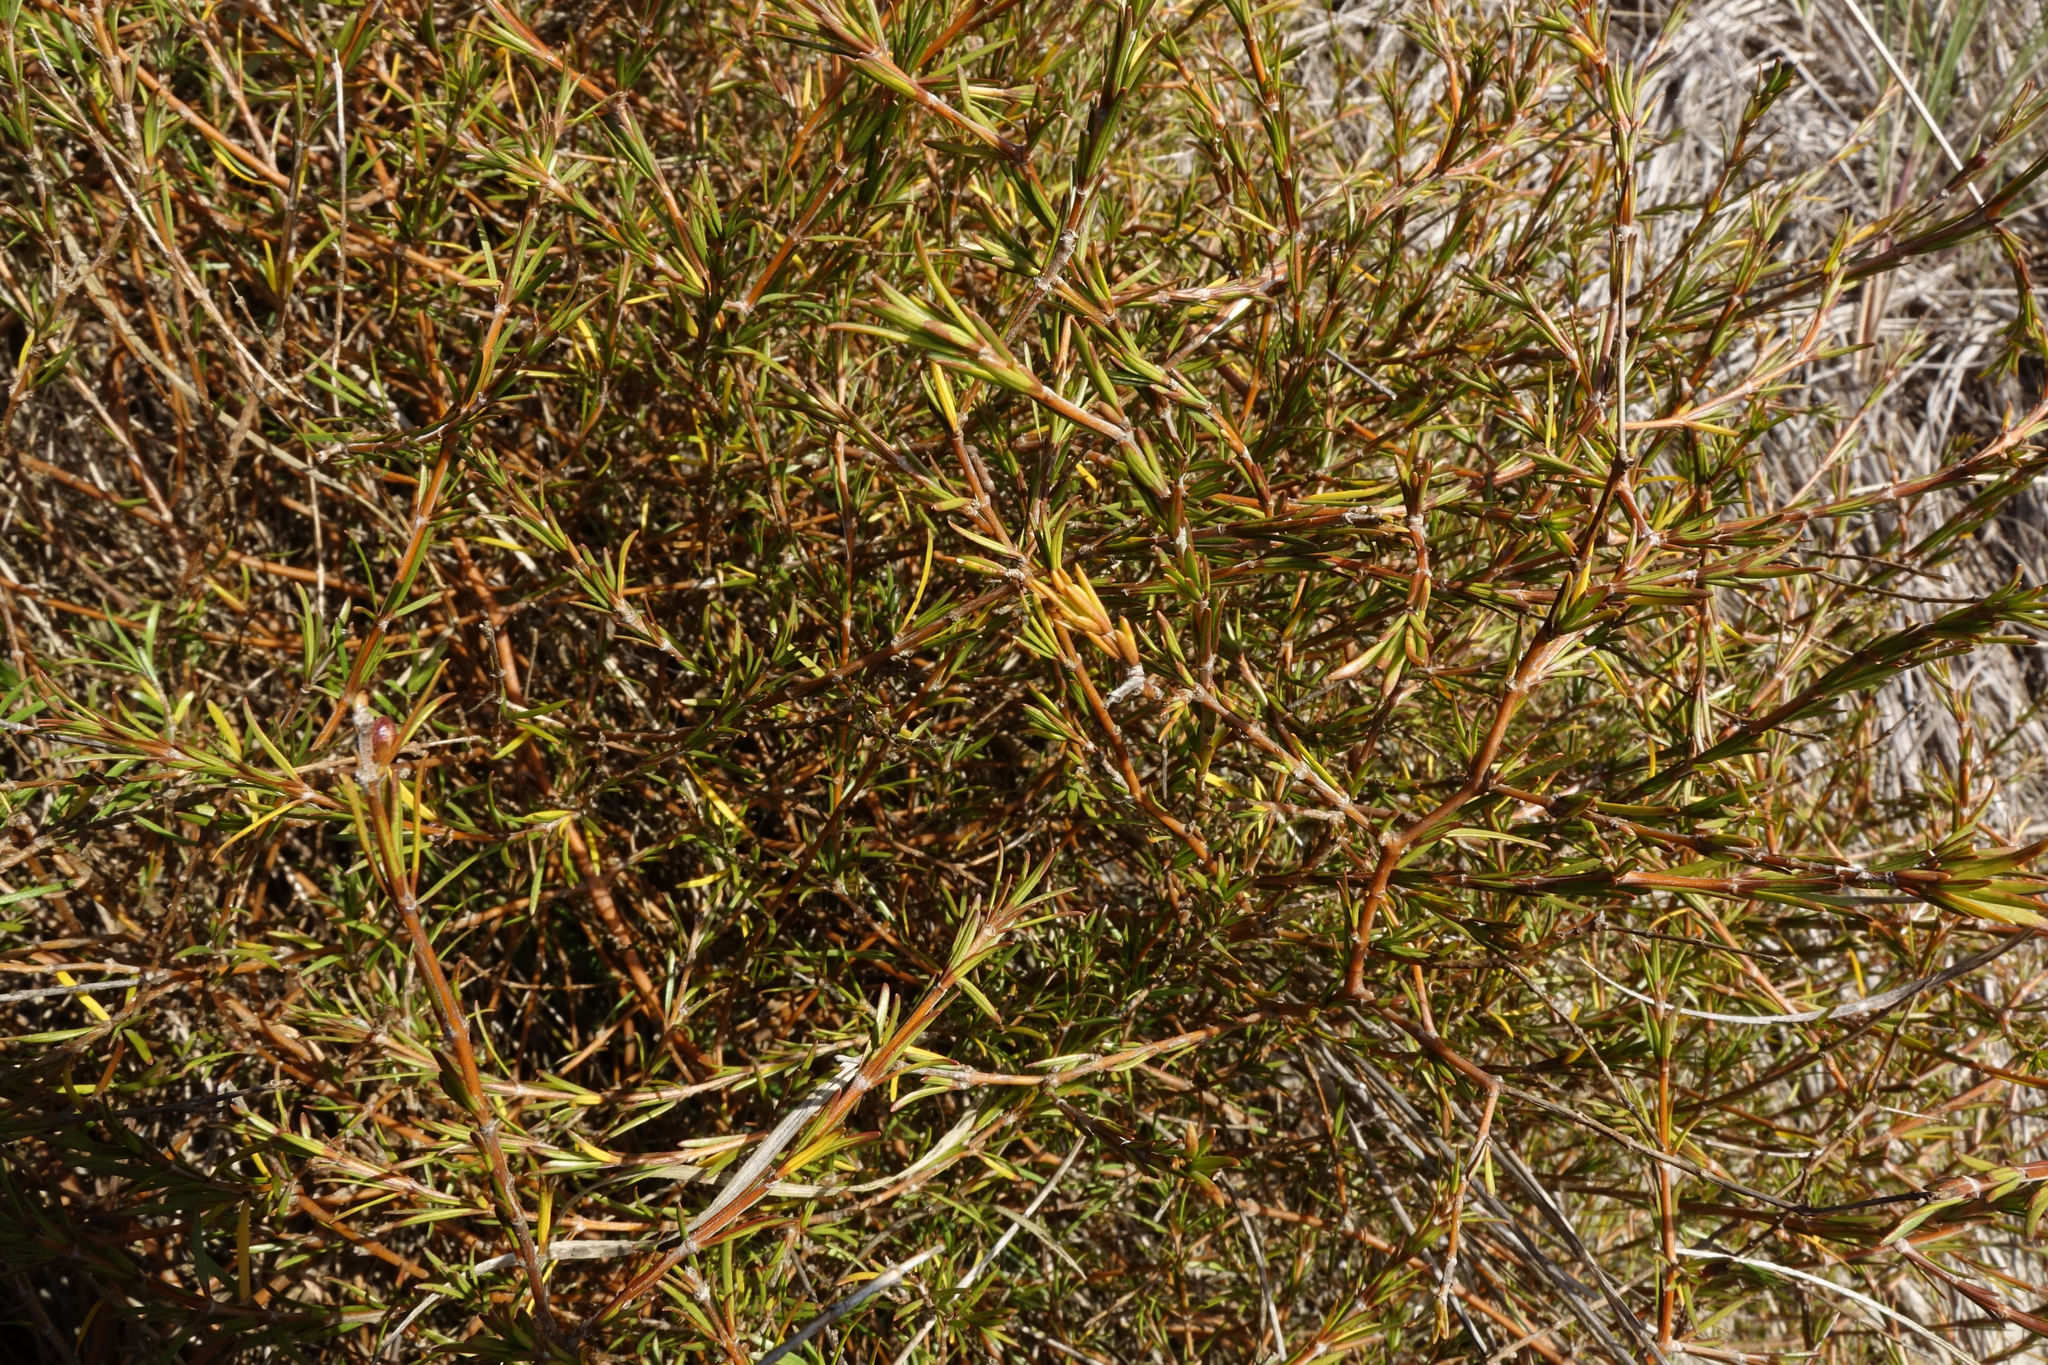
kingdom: Plantae
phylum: Tracheophyta
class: Magnoliopsida
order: Gentianales
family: Rubiaceae
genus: Coprosma
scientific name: Coprosma acerosa
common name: Sand coprosma
